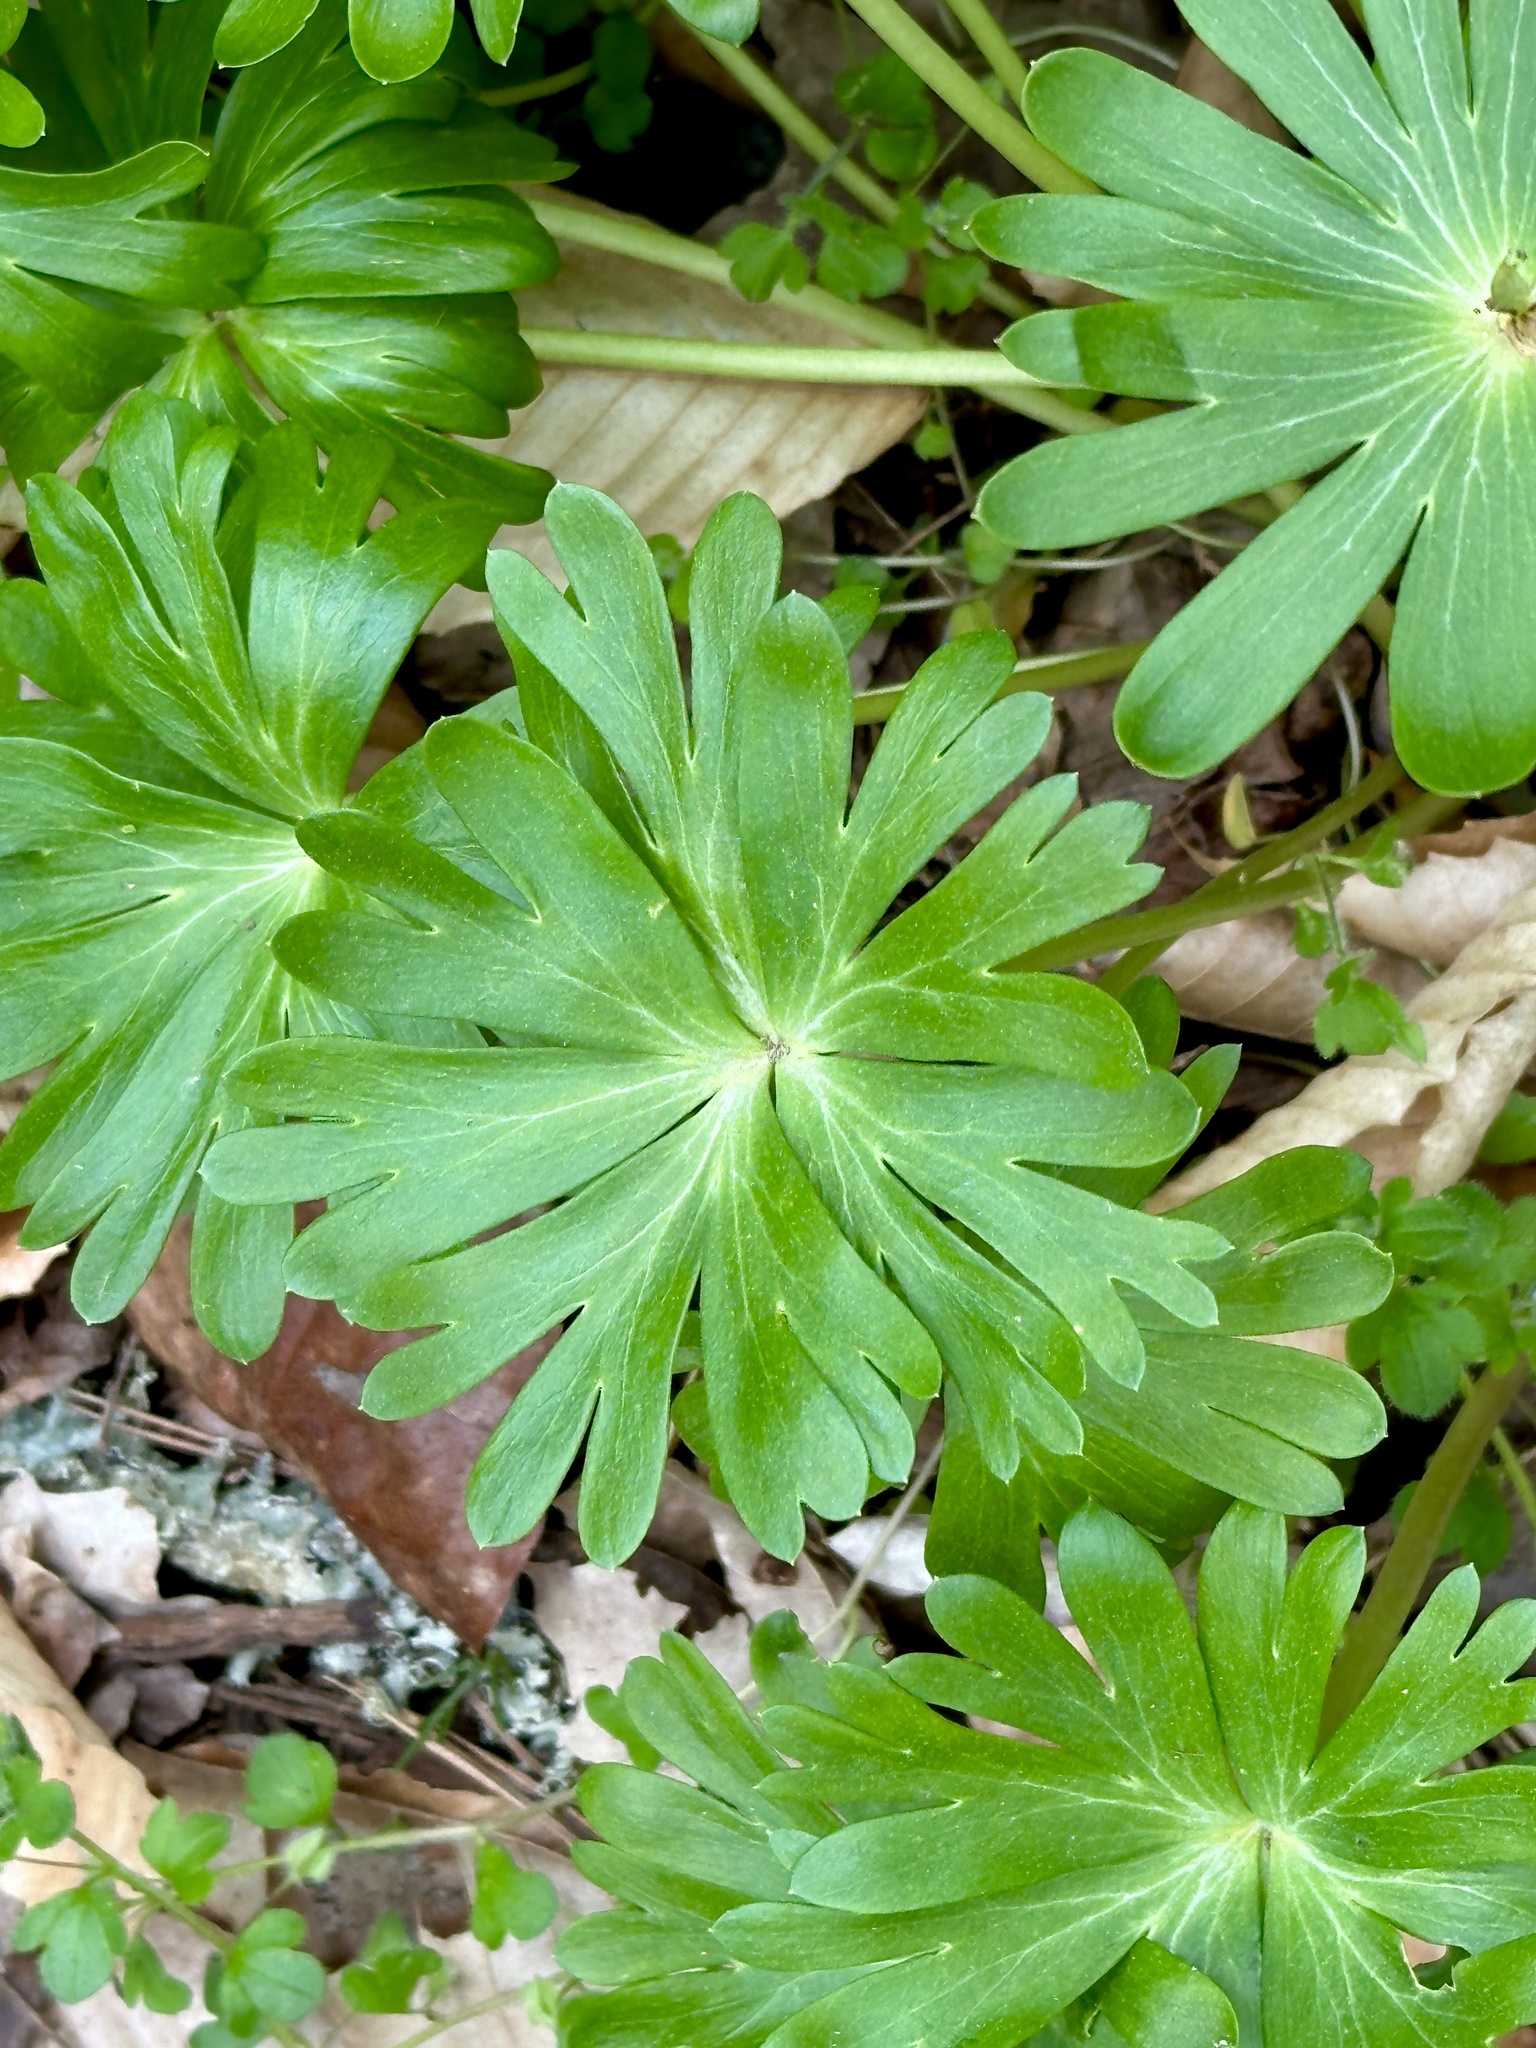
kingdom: Plantae
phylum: Tracheophyta
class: Magnoliopsida
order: Ranunculales
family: Ranunculaceae
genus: Eranthis
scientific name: Eranthis hyemalis
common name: Winter aconite
